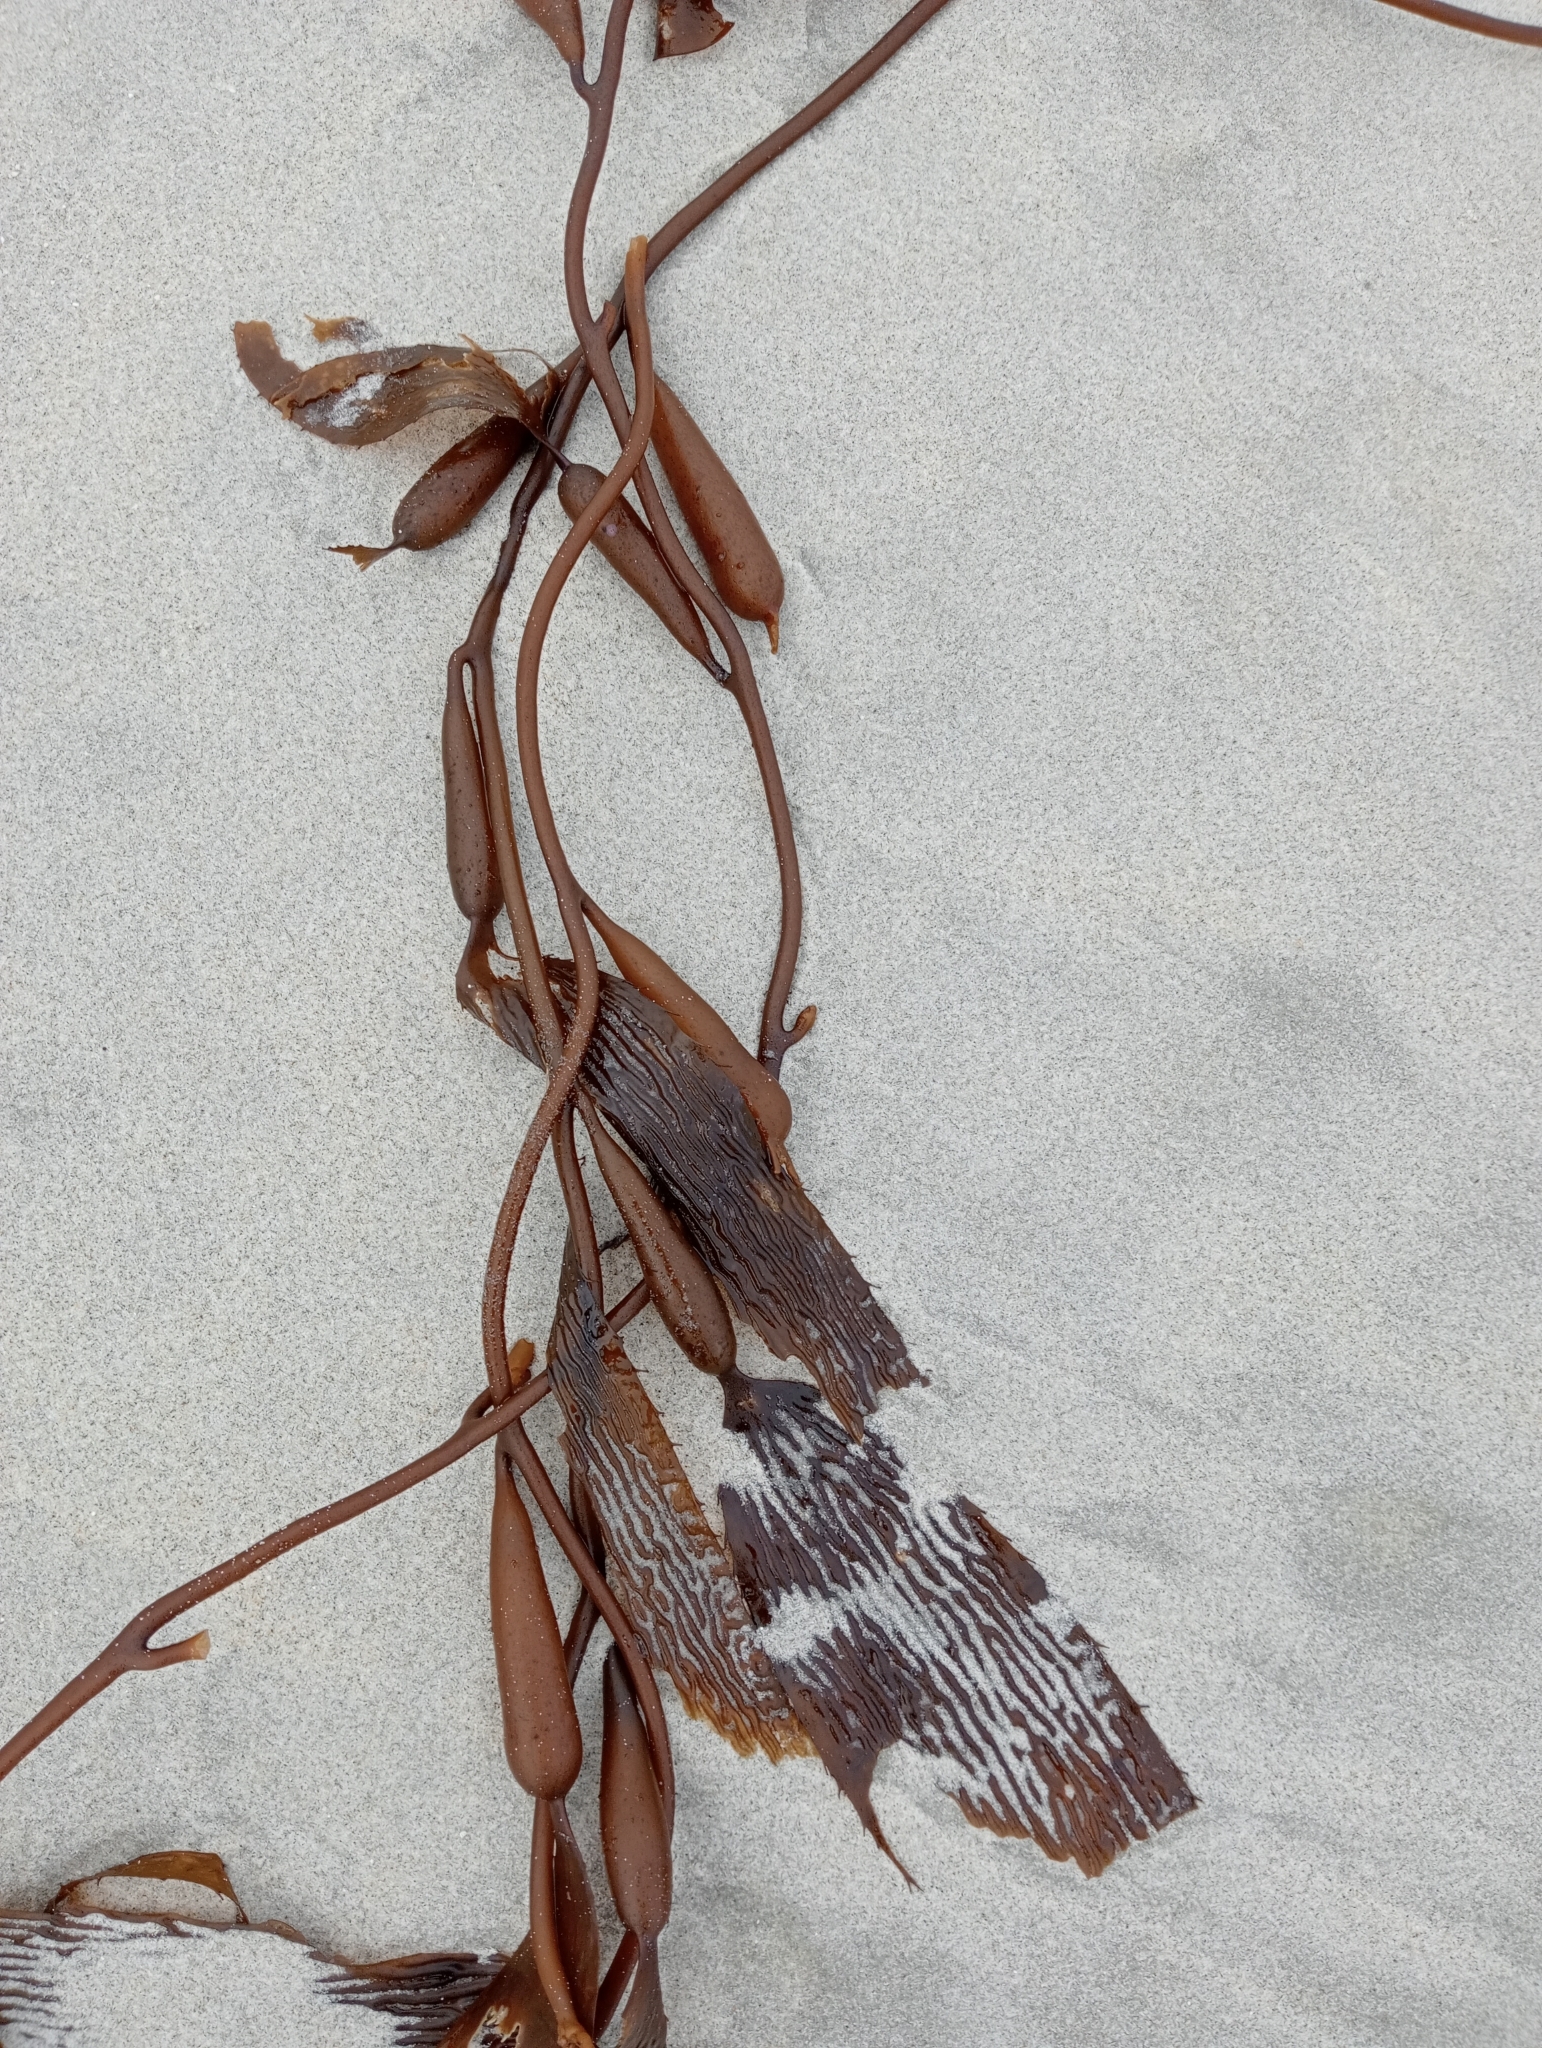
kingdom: Chromista
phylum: Ochrophyta
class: Phaeophyceae
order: Laminariales
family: Laminariaceae
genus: Macrocystis
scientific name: Macrocystis pyrifera
